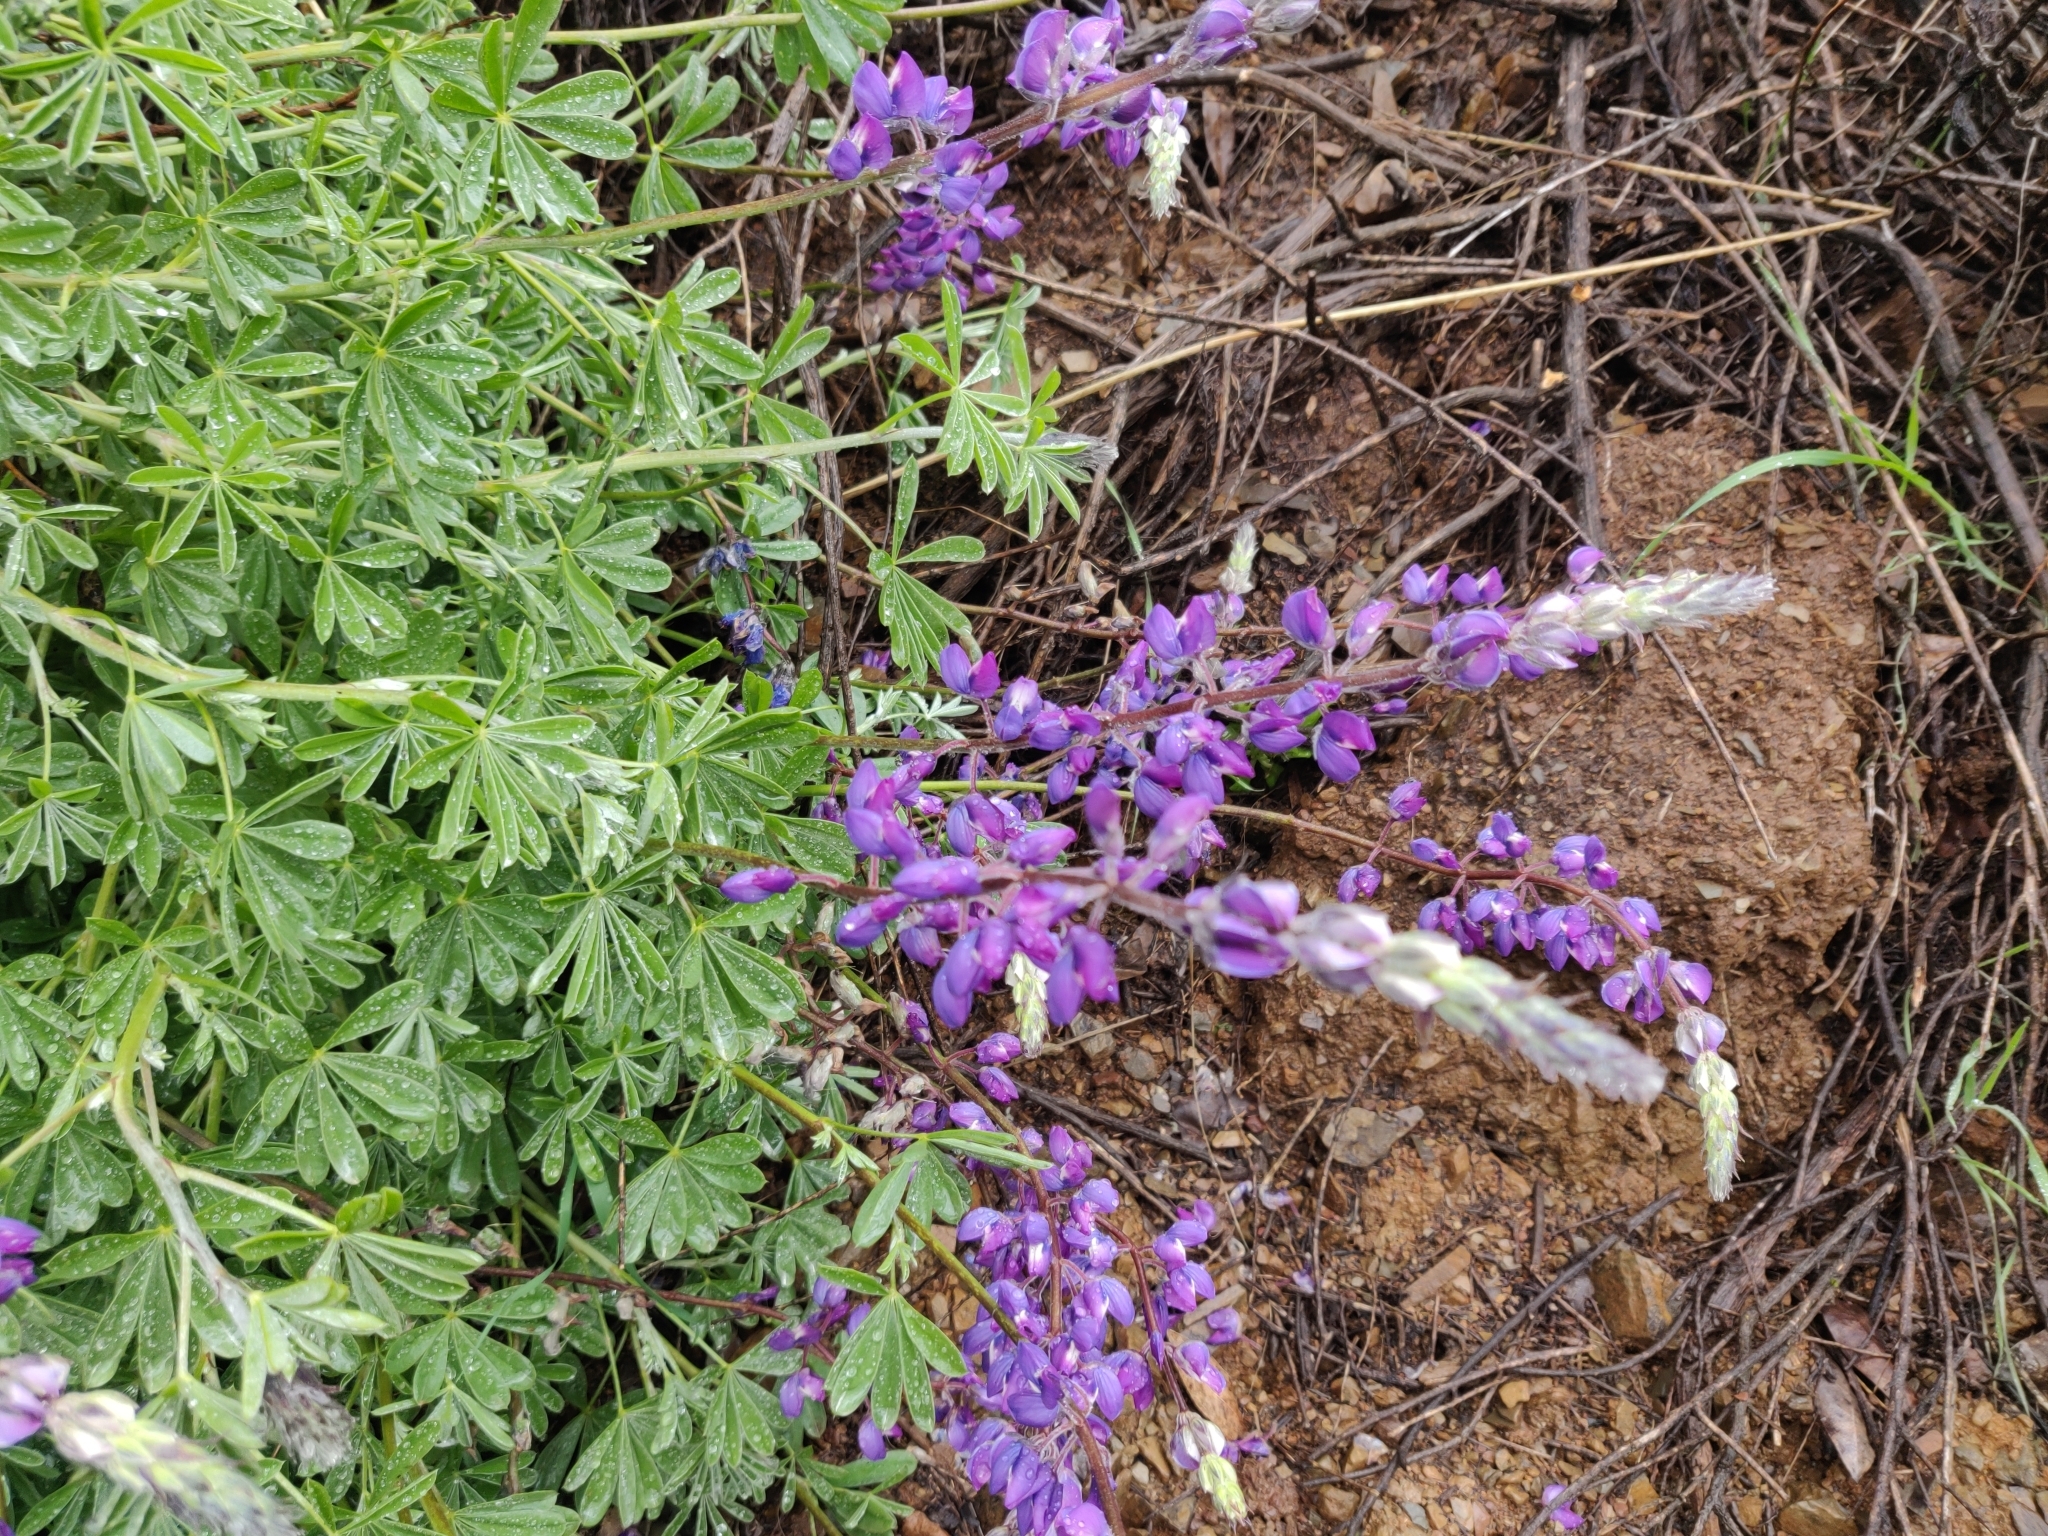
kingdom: Plantae
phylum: Tracheophyta
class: Magnoliopsida
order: Fabales
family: Fabaceae
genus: Lupinus
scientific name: Lupinus albifrons
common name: Foothill lupine
